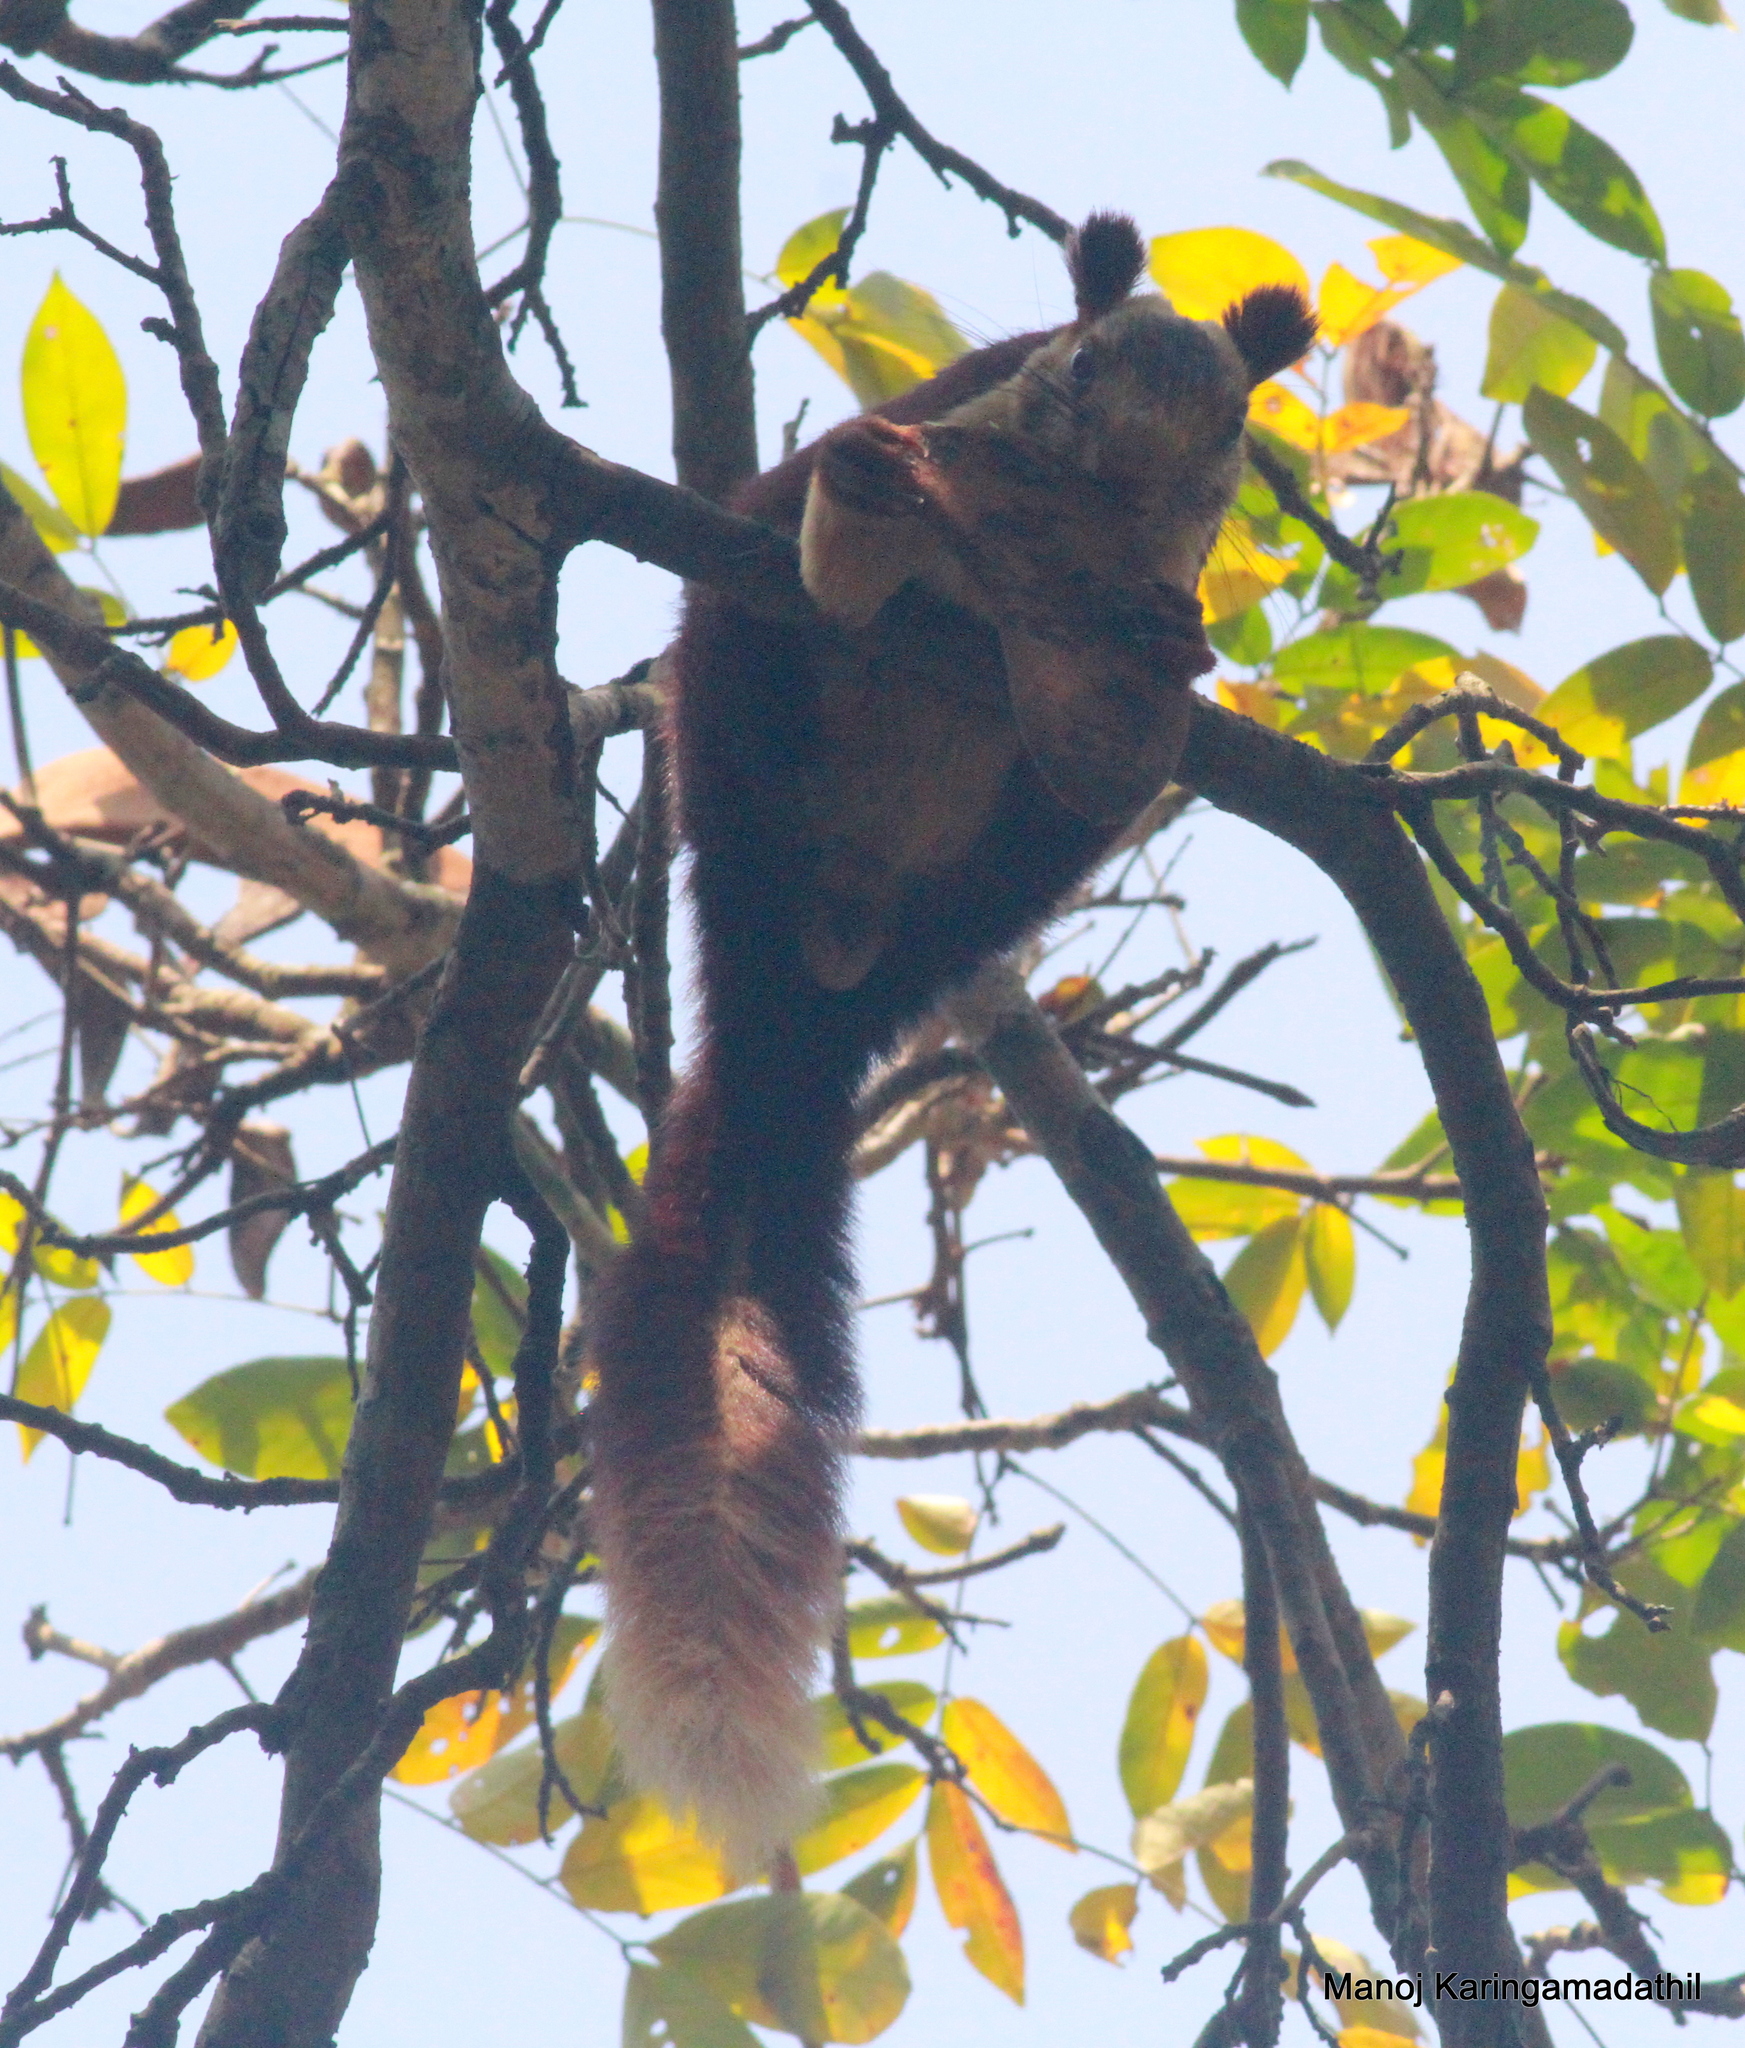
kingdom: Animalia
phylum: Chordata
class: Mammalia
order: Rodentia
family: Sciuridae
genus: Ratufa
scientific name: Ratufa indica
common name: Indian giant squirrel
